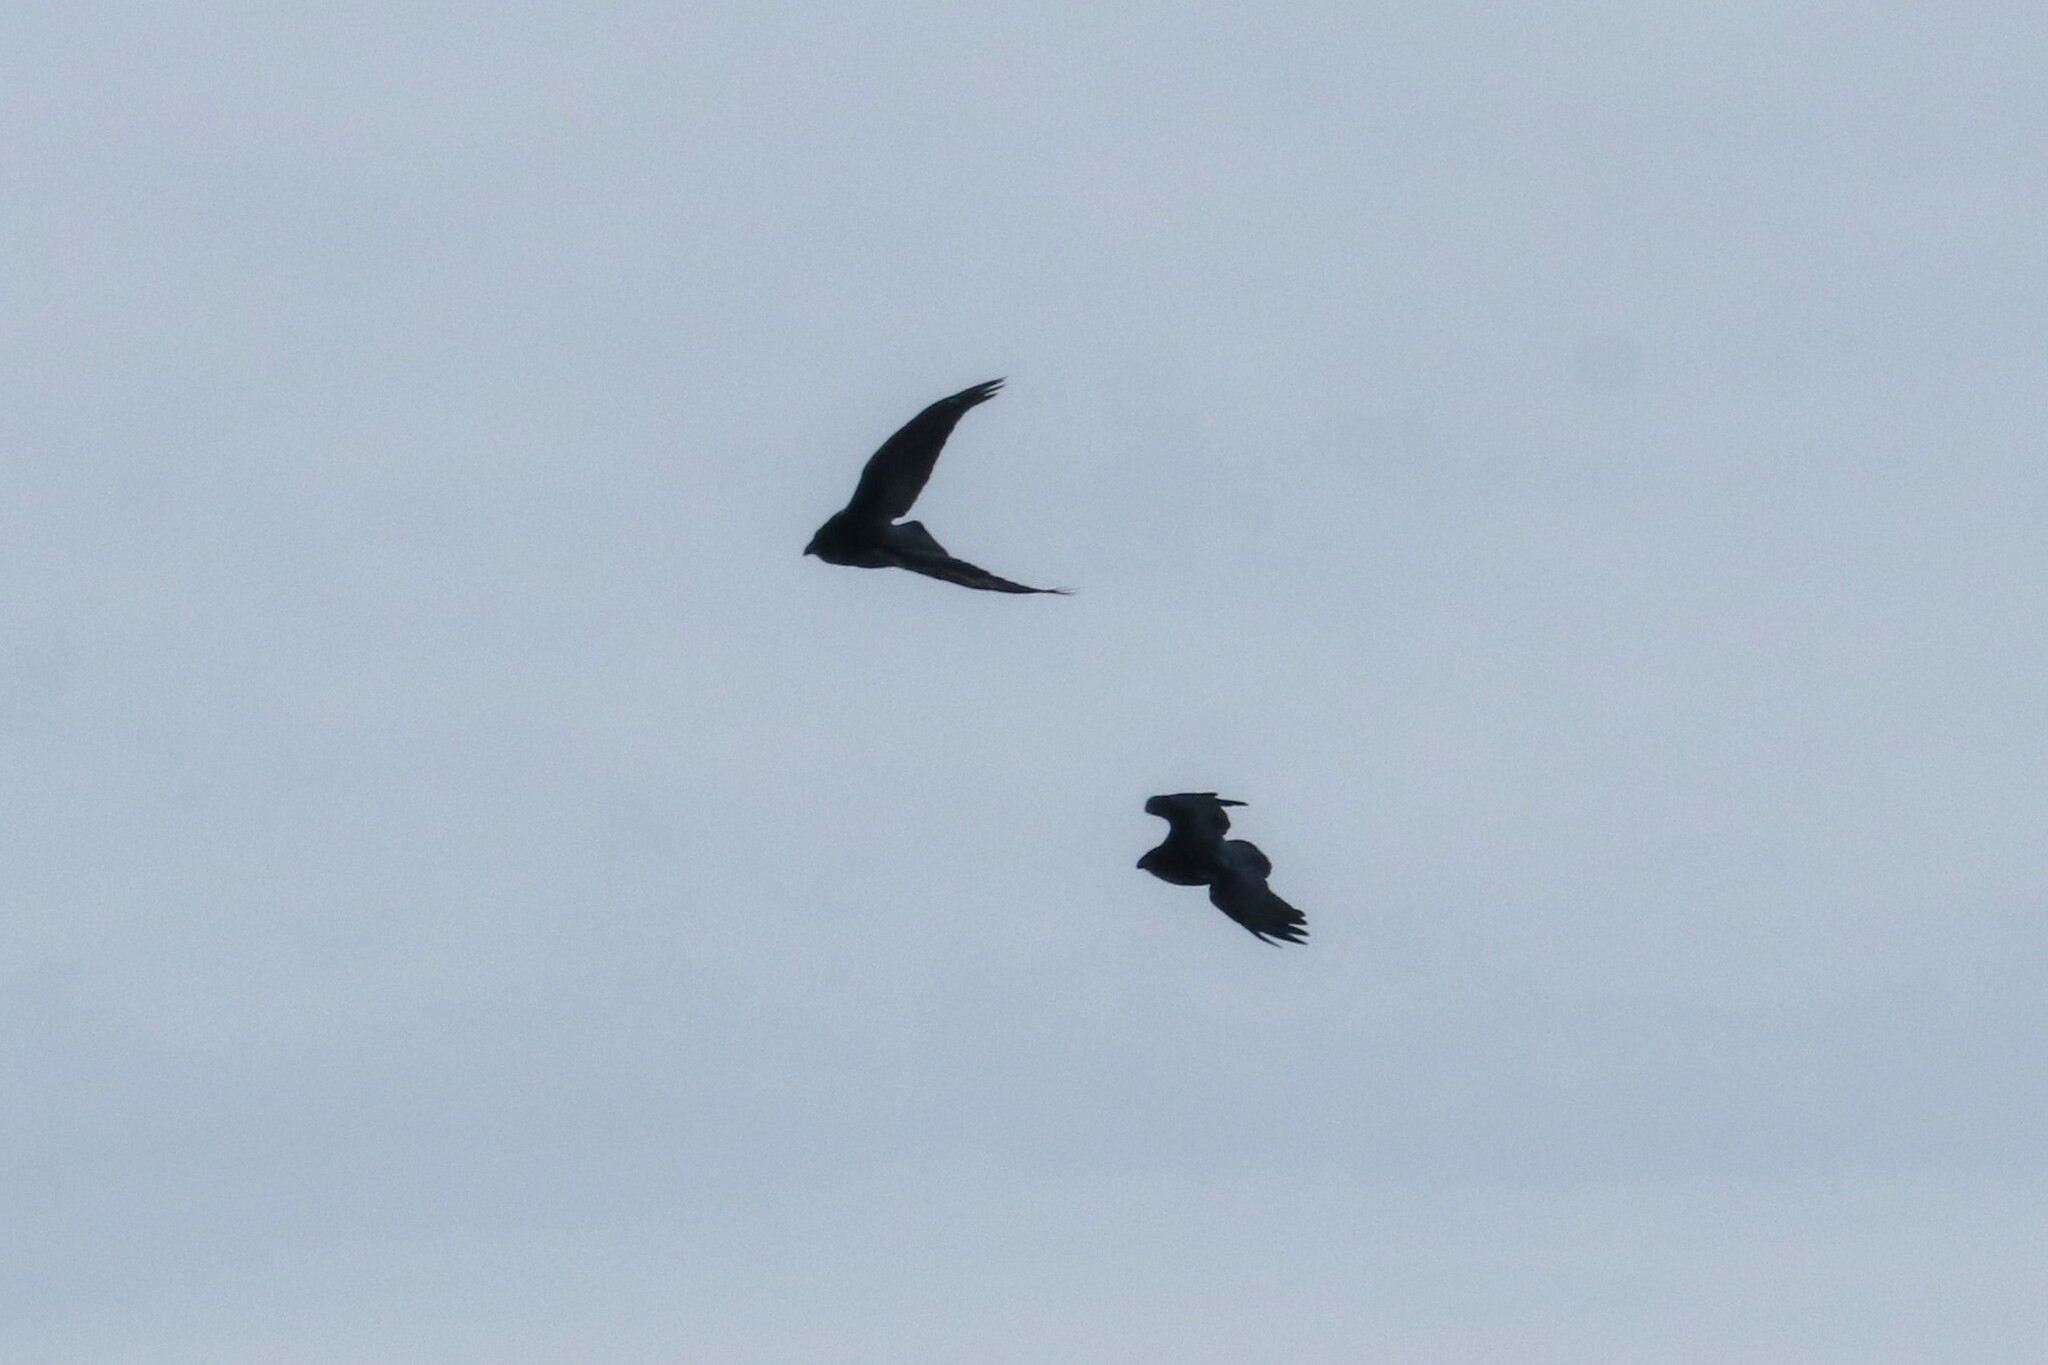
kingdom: Animalia
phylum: Chordata
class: Aves
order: Passeriformes
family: Corvidae
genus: Corvus
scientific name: Corvus corax
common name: Common raven
